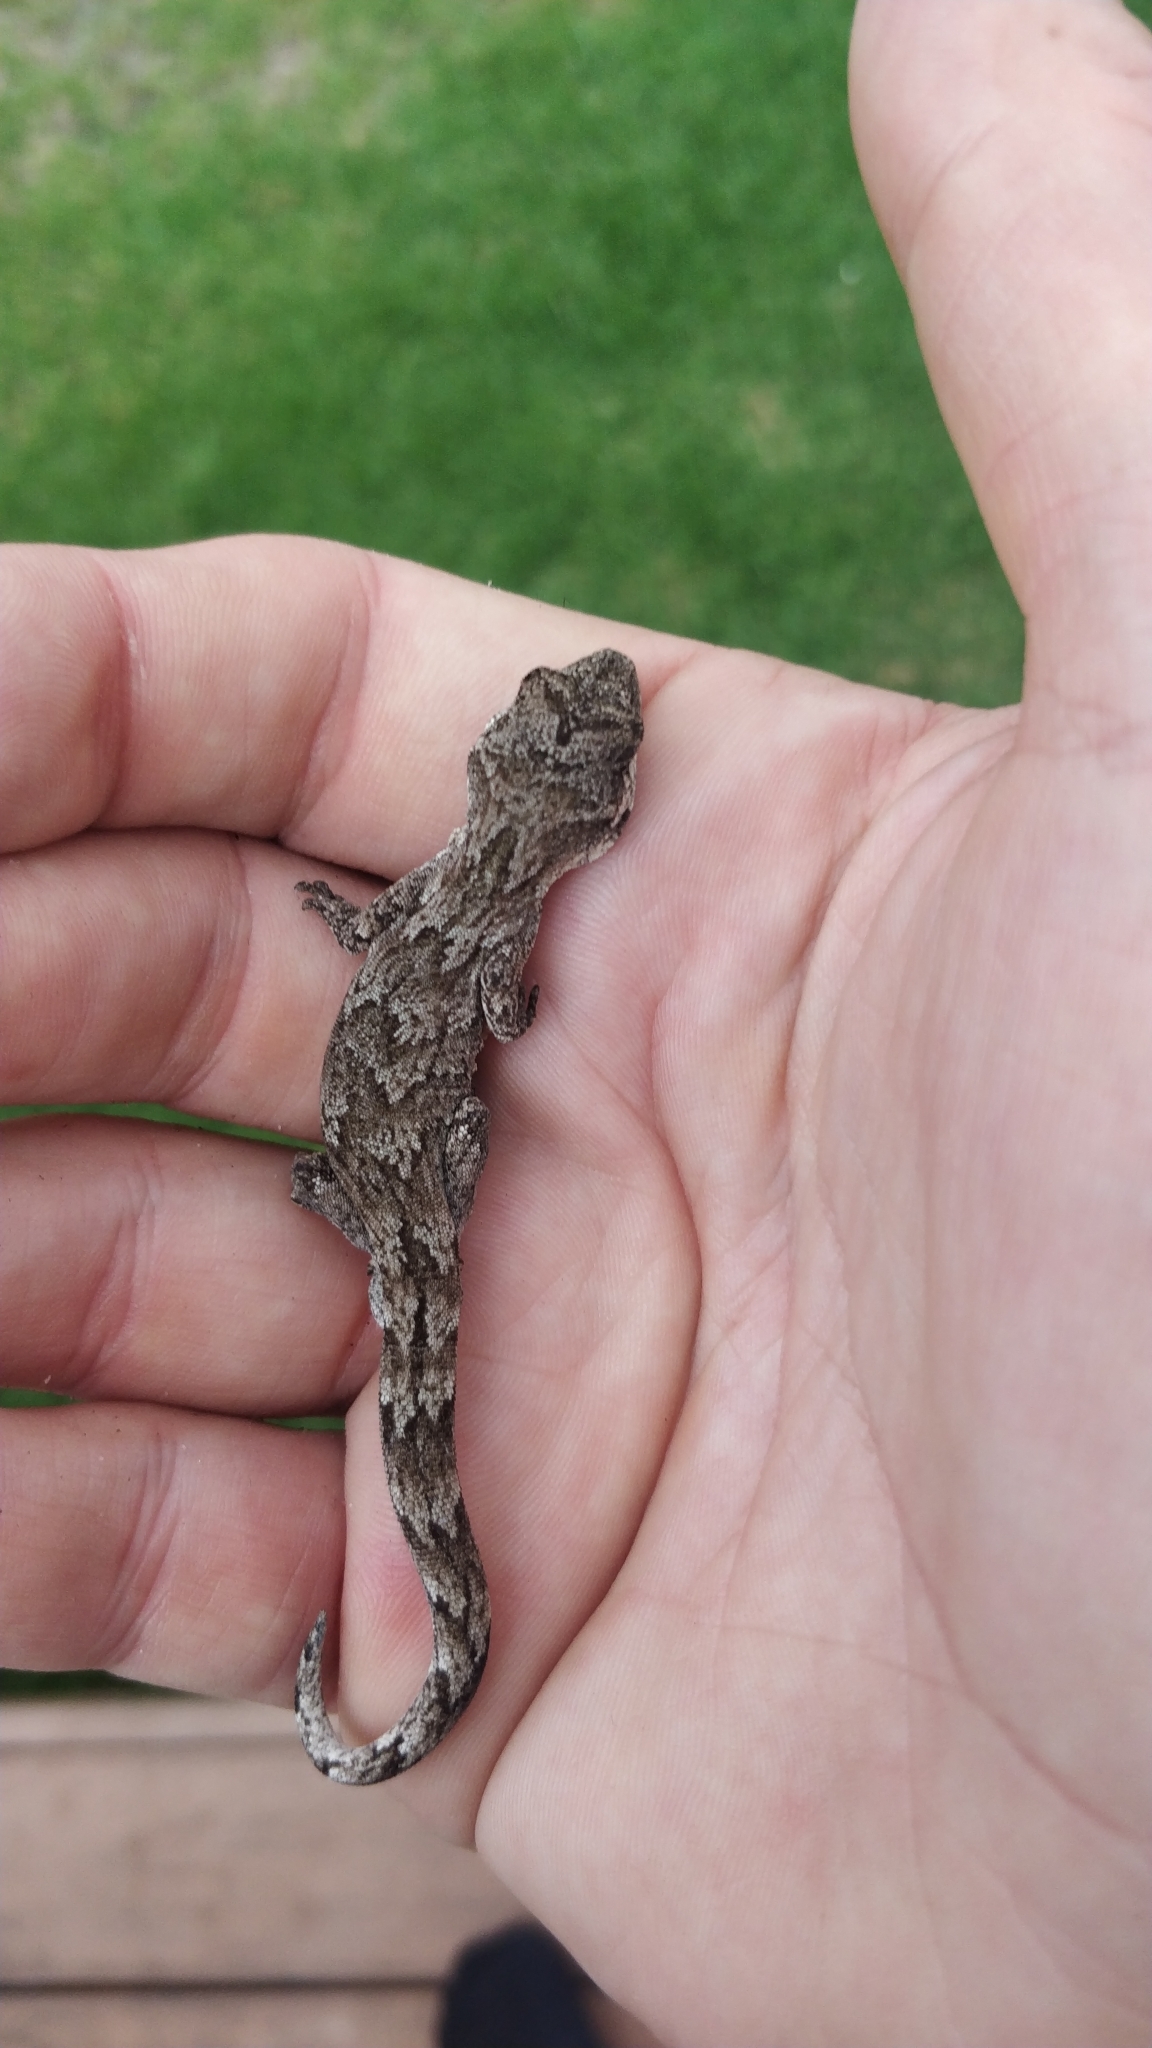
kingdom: Animalia
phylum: Chordata
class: Squamata
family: Diplodactylidae
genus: Mokopirirakau
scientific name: Mokopirirakau granulatus
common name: Forest gecko
